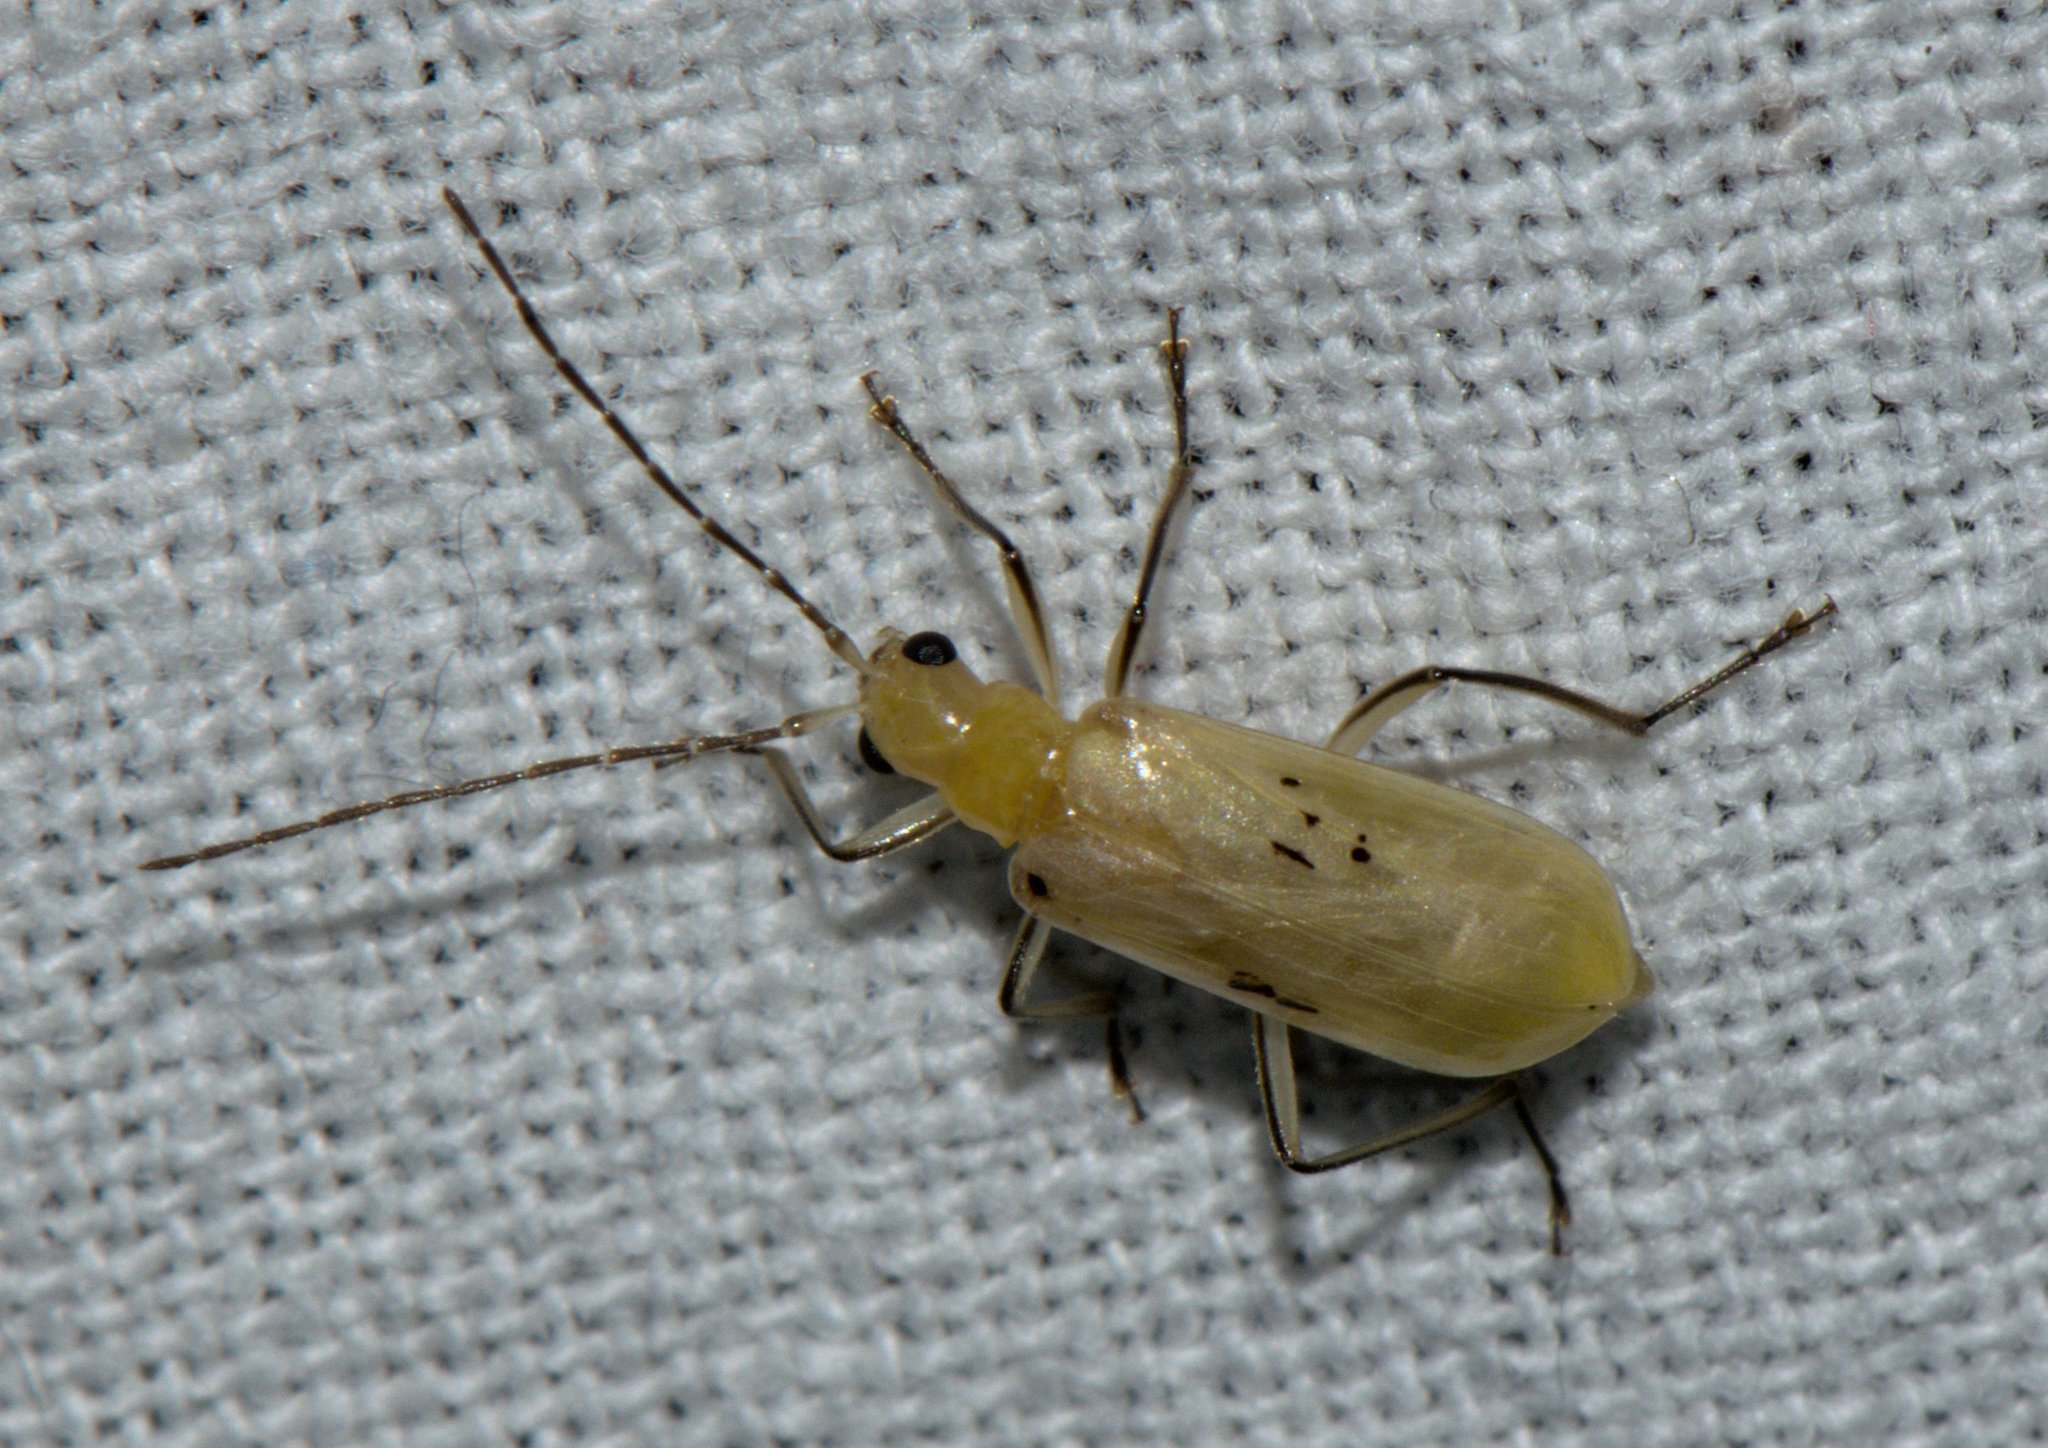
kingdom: Animalia
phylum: Arthropoda
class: Insecta
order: Coleoptera
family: Chrysomelidae
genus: Mimastra
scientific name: Mimastra
